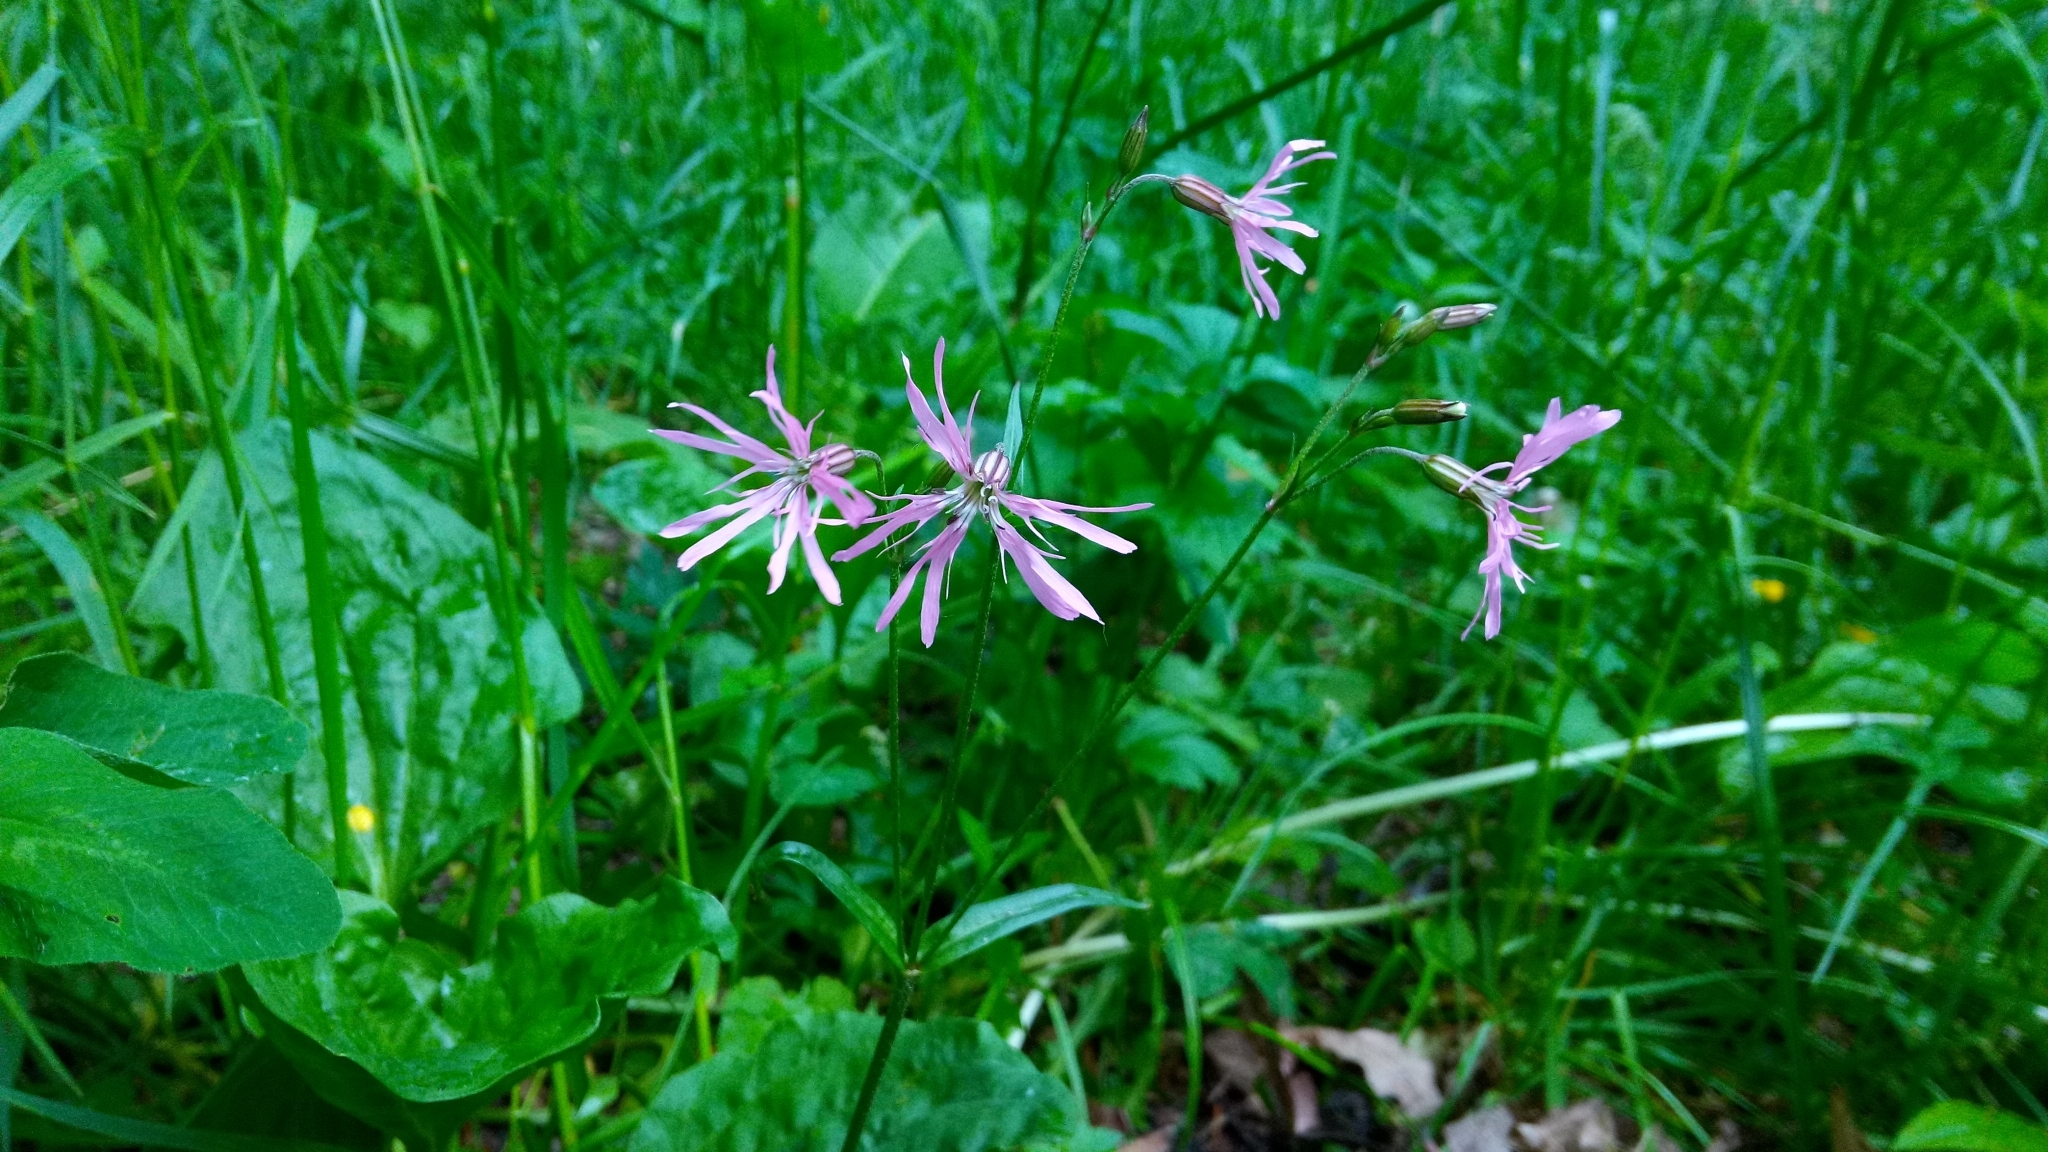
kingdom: Plantae
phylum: Tracheophyta
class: Magnoliopsida
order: Caryophyllales
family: Caryophyllaceae
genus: Silene
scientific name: Silene flos-cuculi
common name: Ragged-robin
